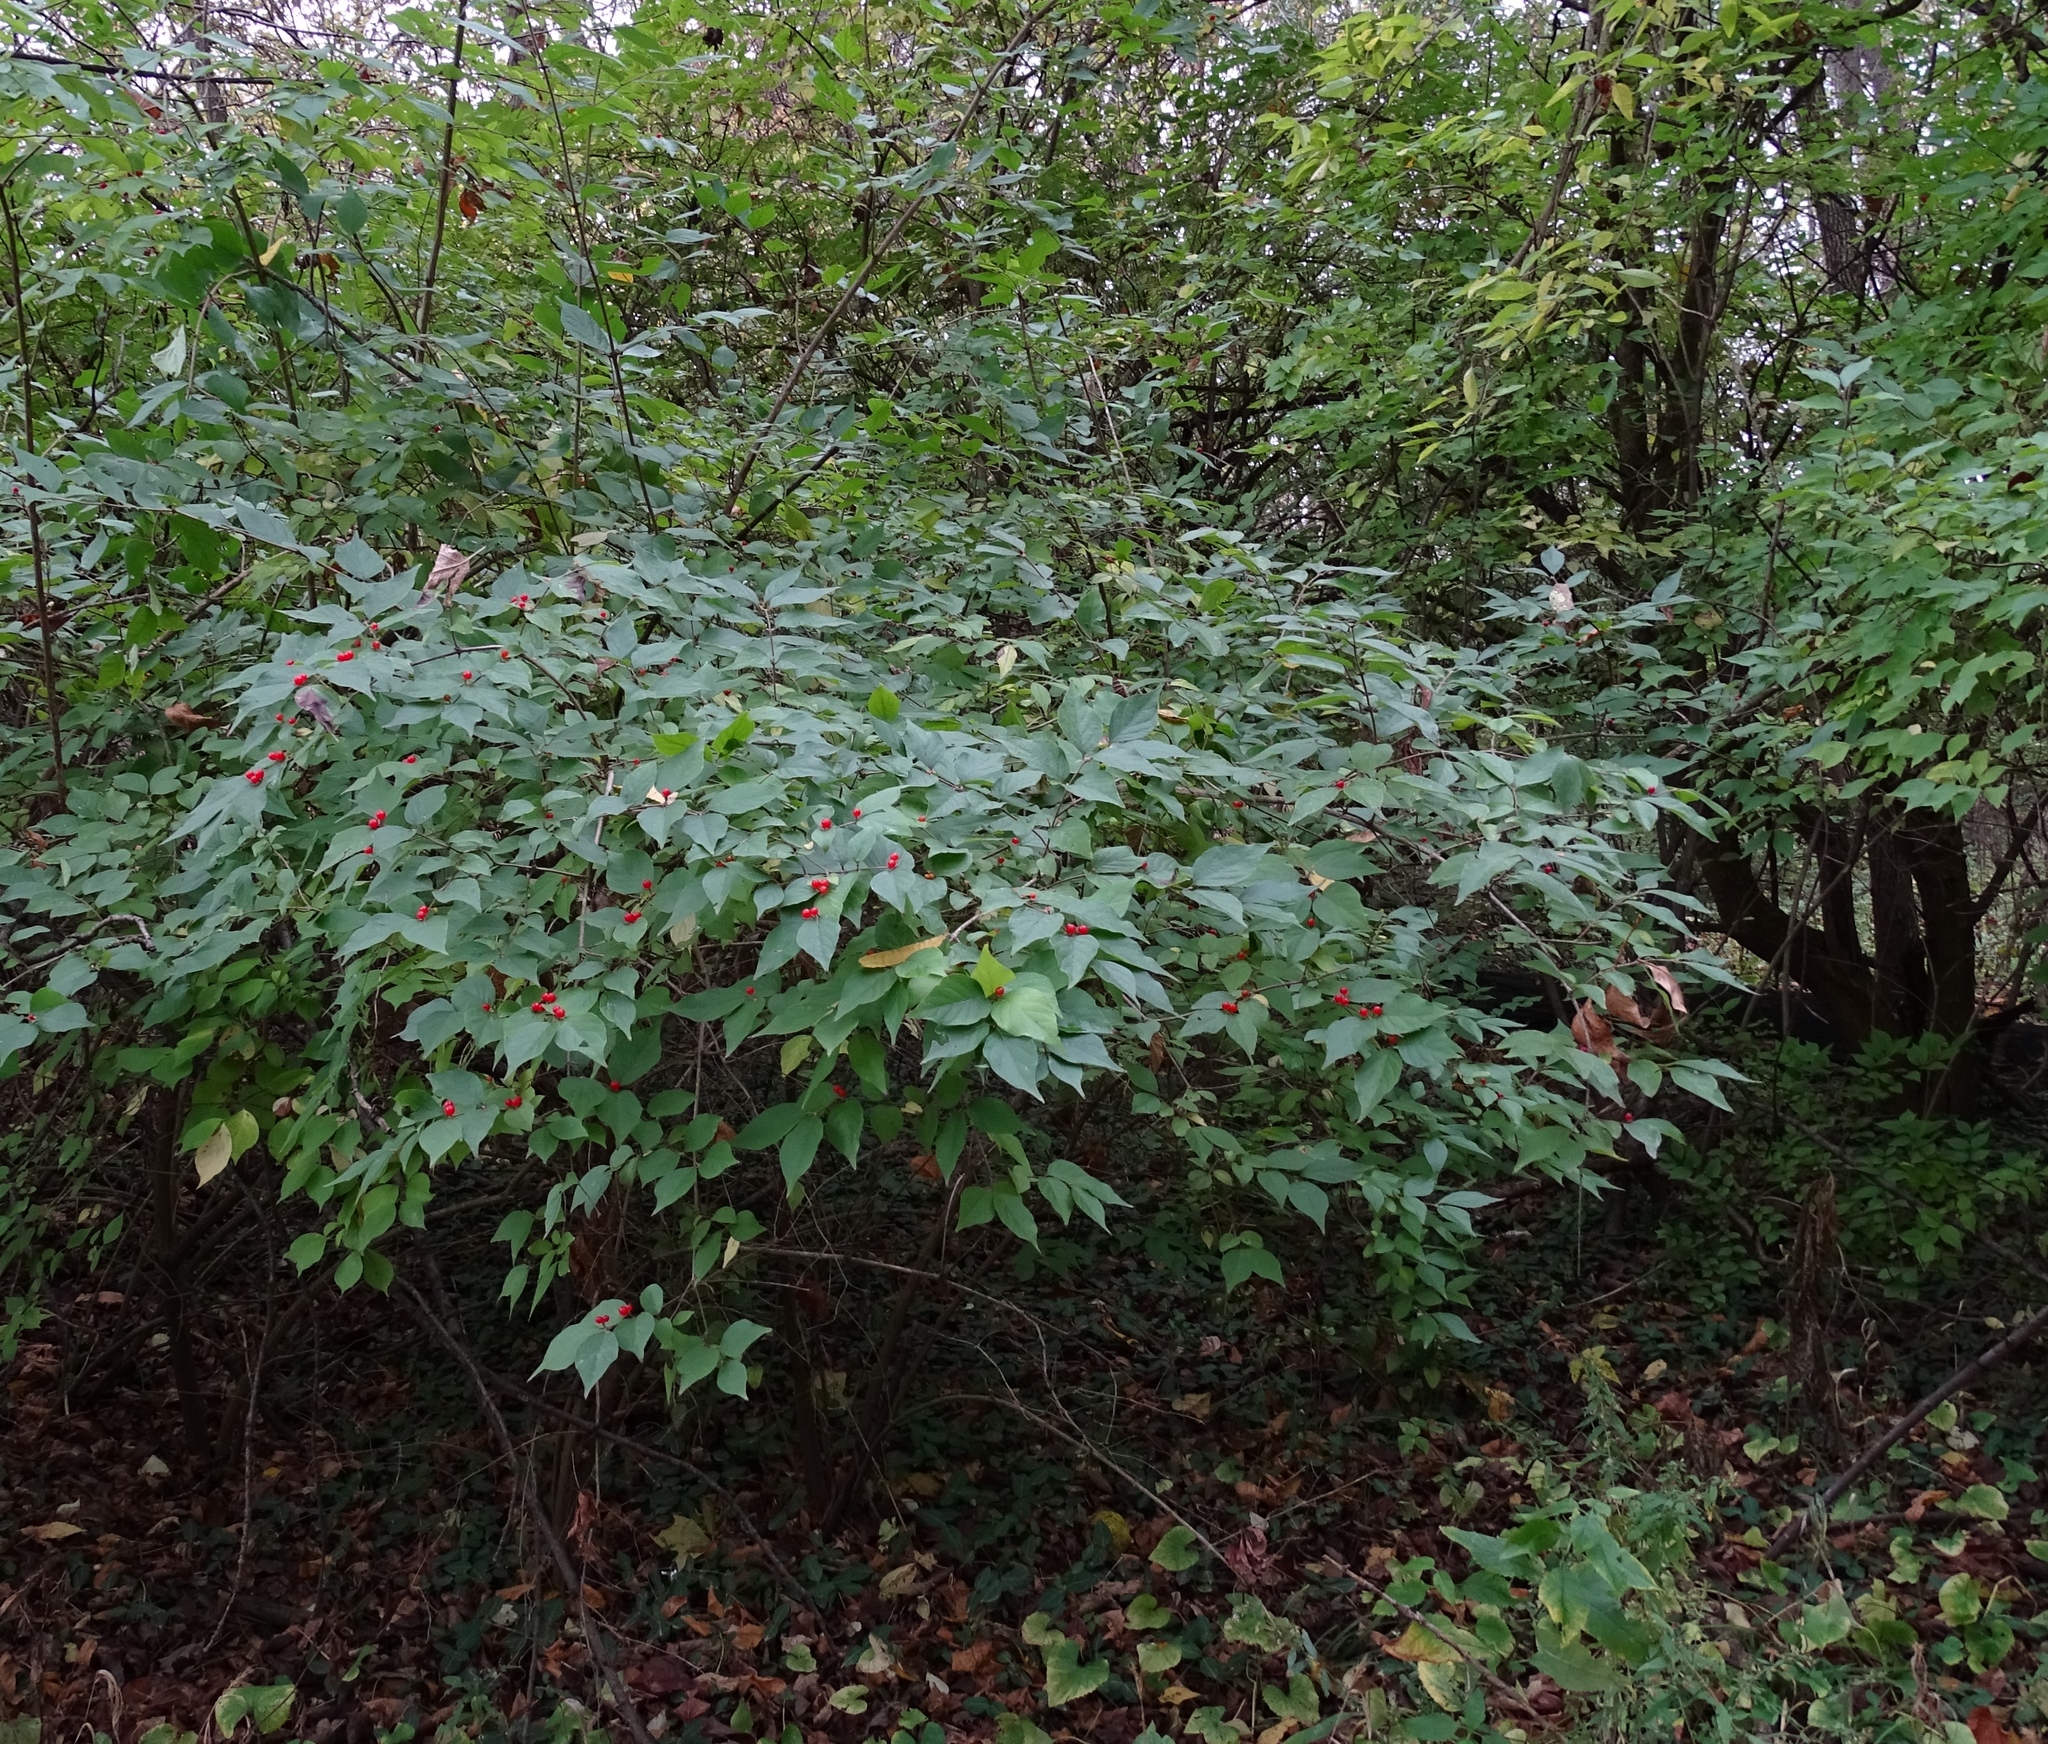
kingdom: Plantae
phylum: Tracheophyta
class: Magnoliopsida
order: Dipsacales
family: Caprifoliaceae
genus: Lonicera
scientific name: Lonicera maackii
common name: Amur honeysuckle
